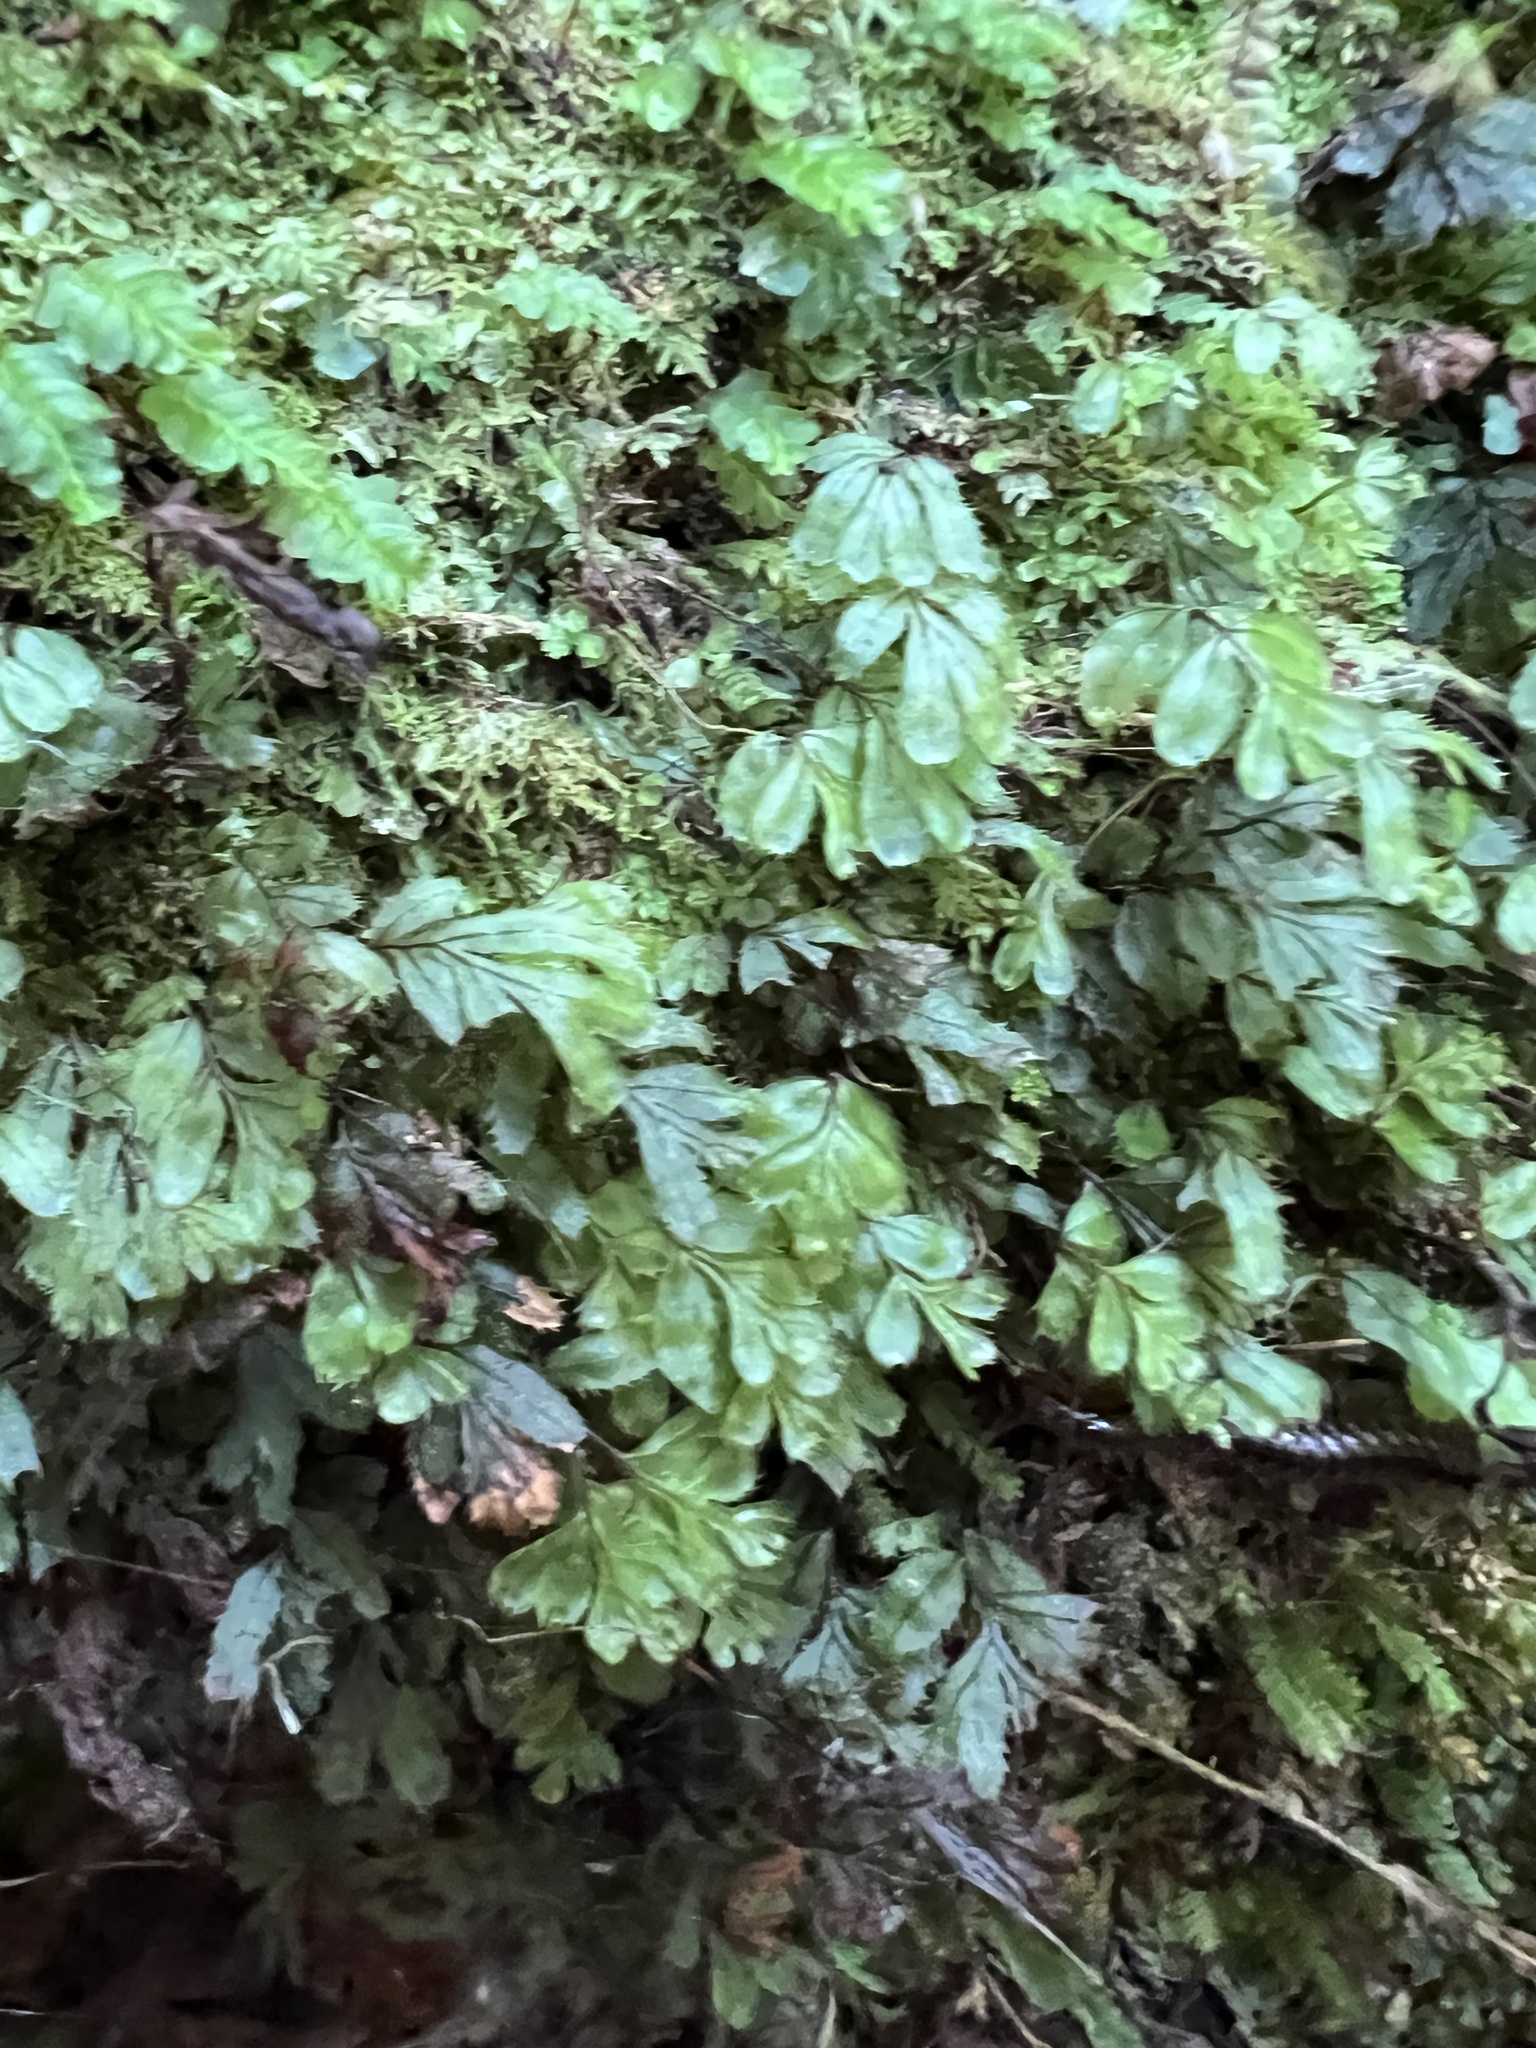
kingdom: Plantae
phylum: Tracheophyta
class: Polypodiopsida
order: Hymenophyllales
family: Hymenophyllaceae
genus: Hymenophyllum
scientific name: Hymenophyllum revolutum
